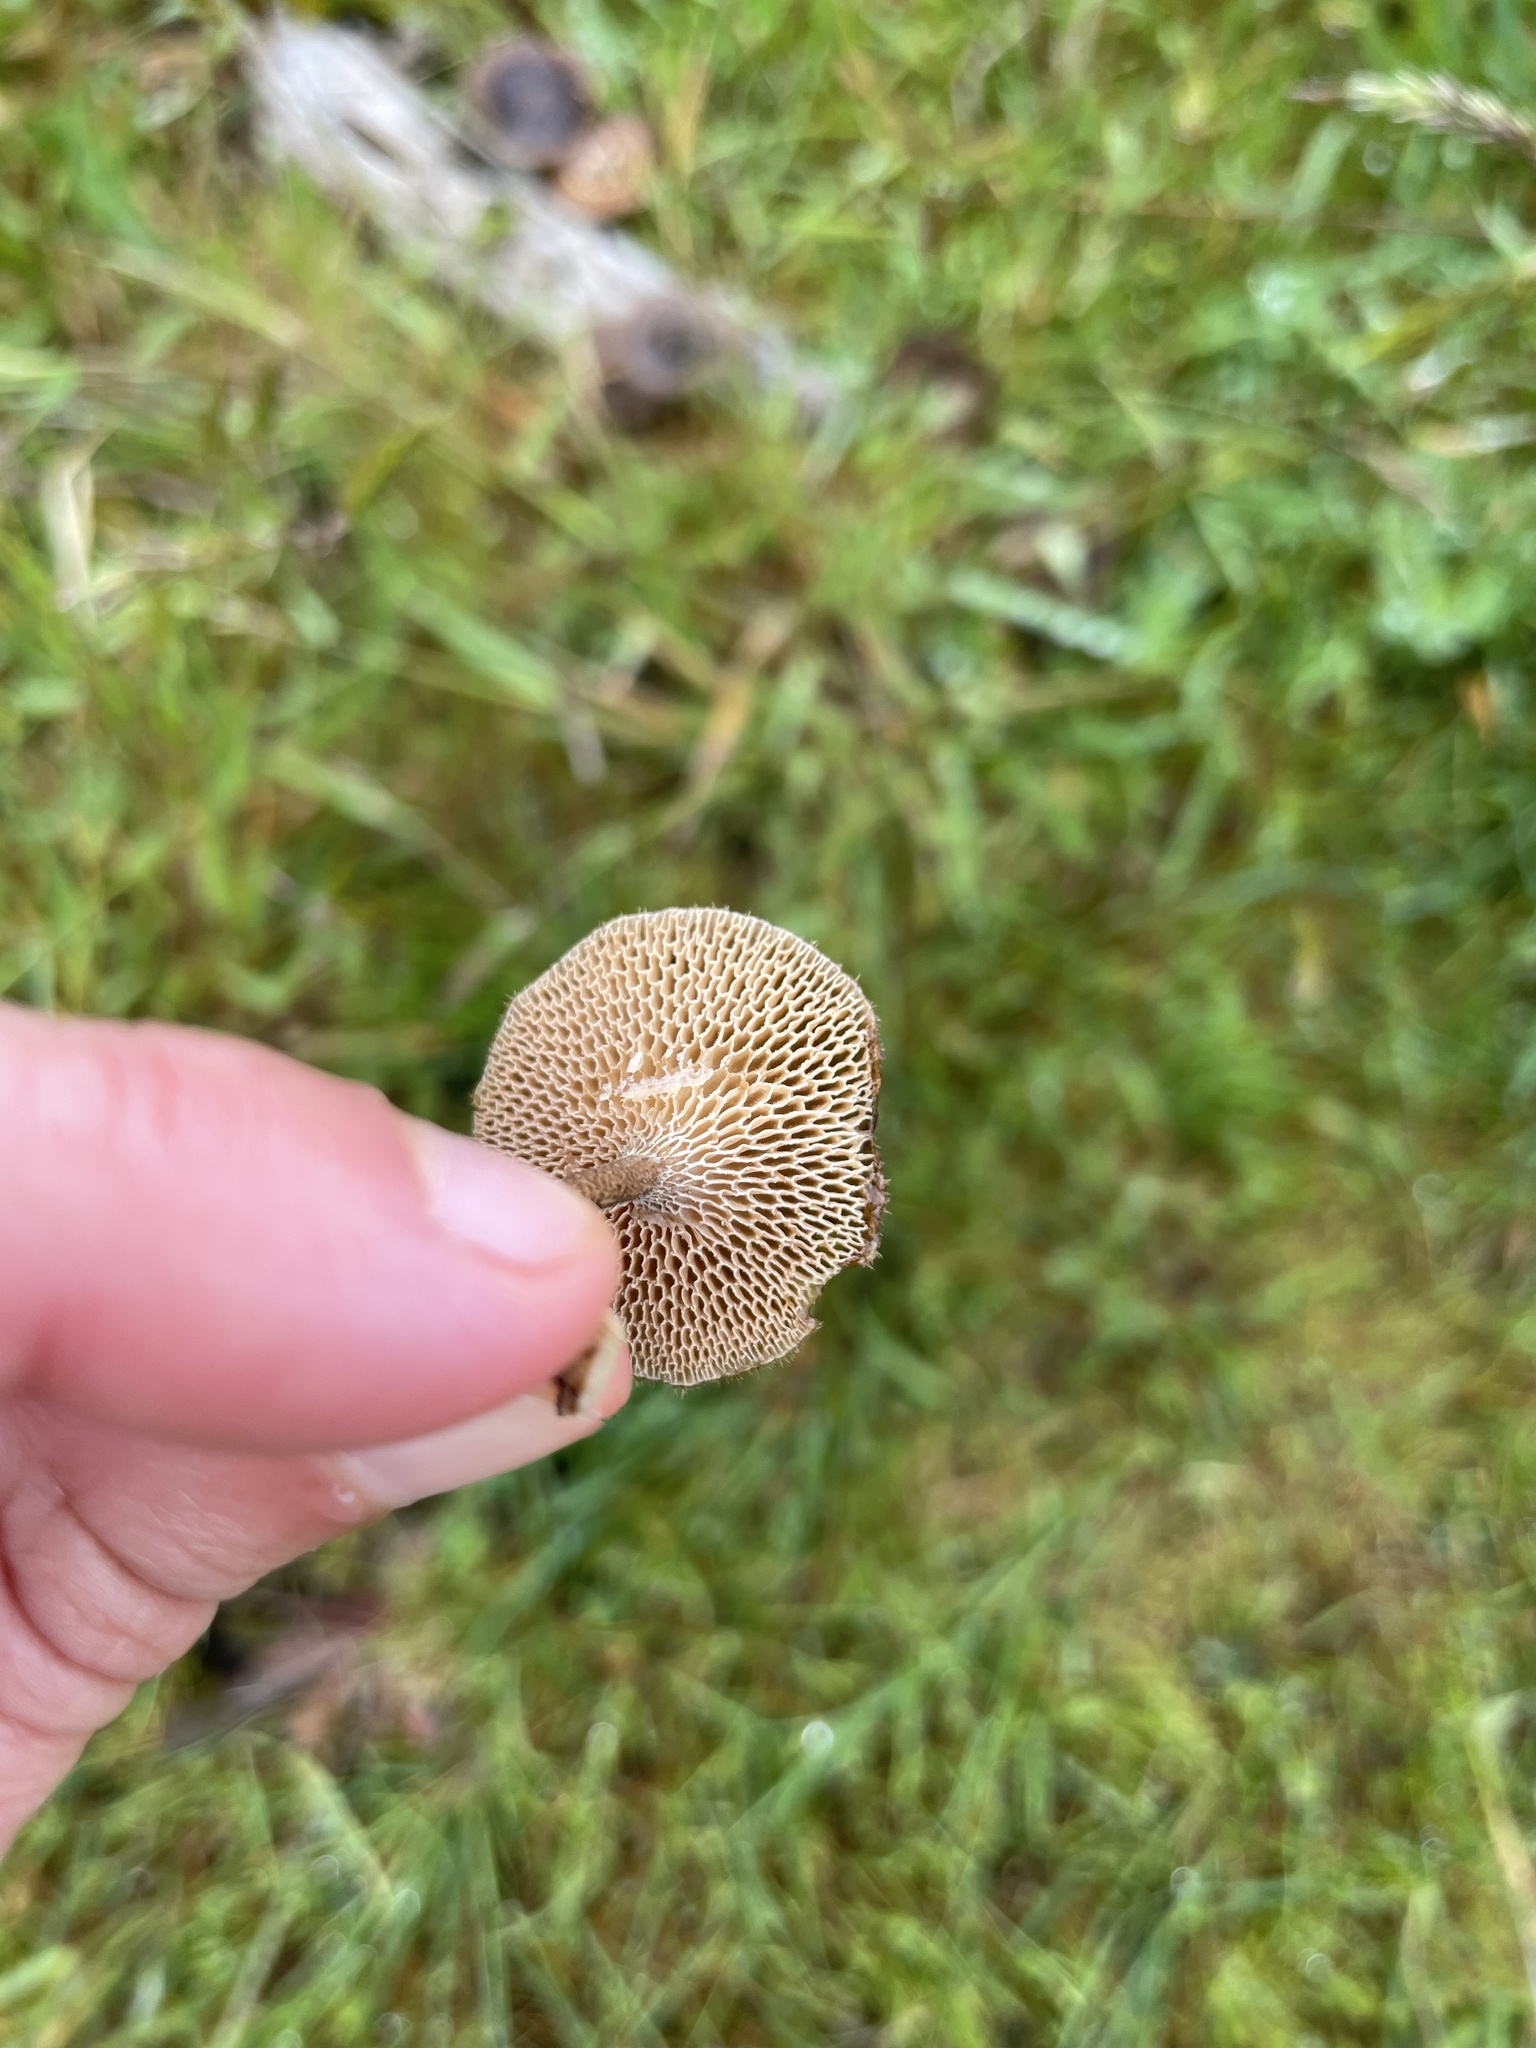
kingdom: Fungi
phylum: Basidiomycota
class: Agaricomycetes
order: Polyporales
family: Polyporaceae
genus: Lentinus
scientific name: Lentinus arcularius
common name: Spring polypore
